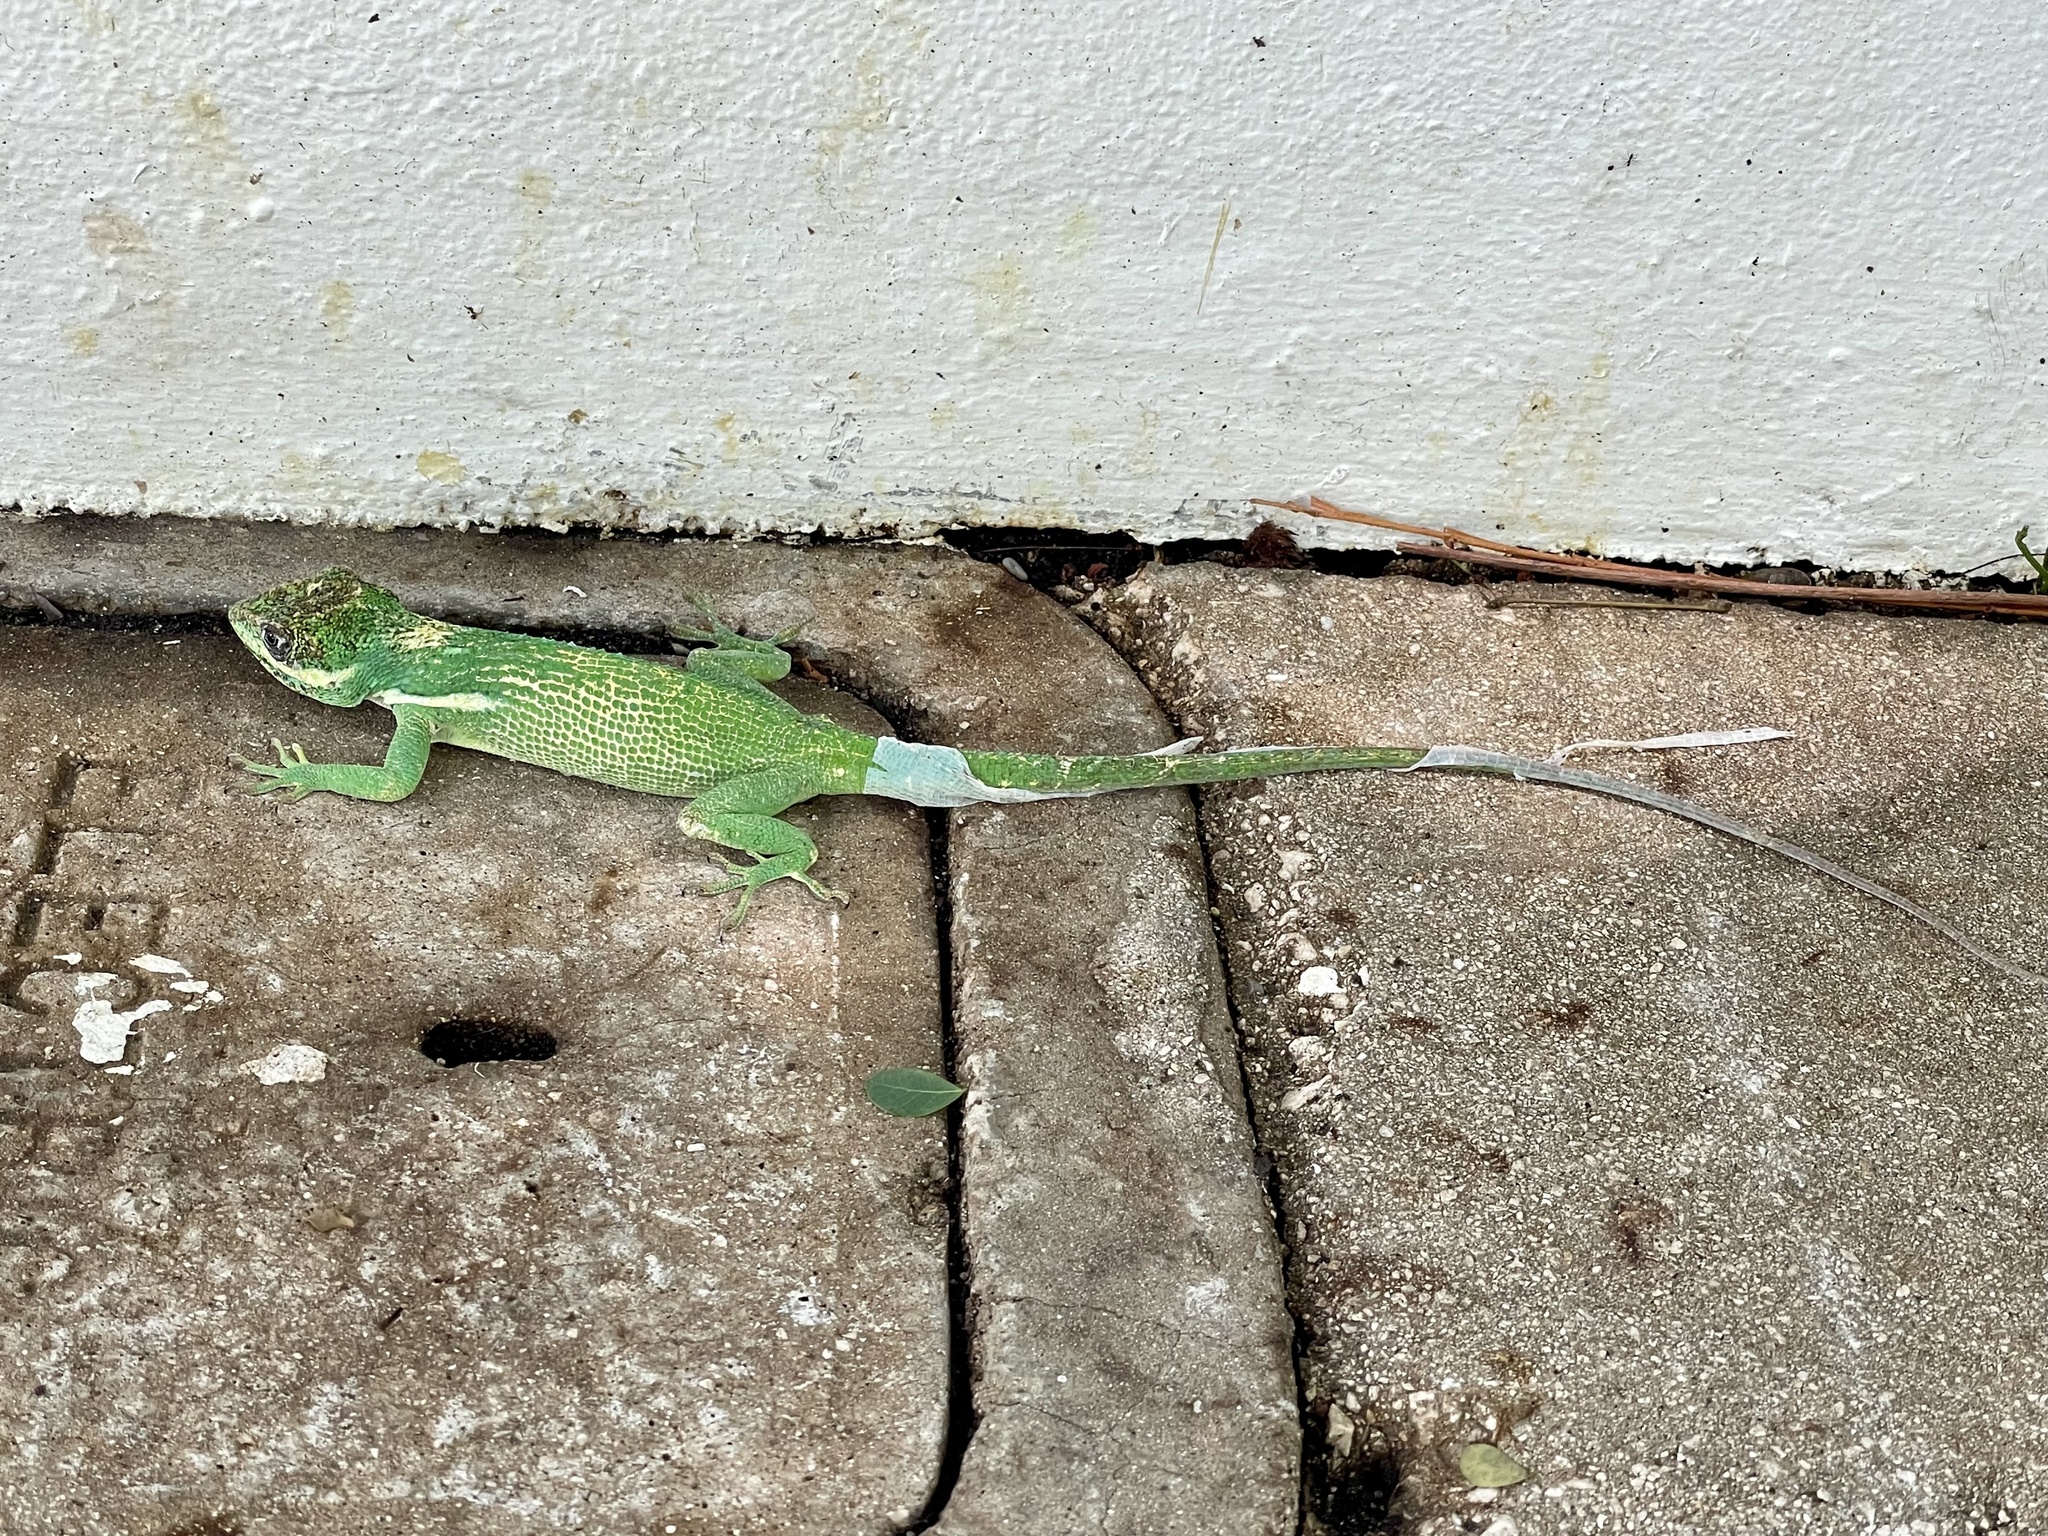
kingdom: Animalia
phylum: Chordata
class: Squamata
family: Dactyloidae
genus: Anolis
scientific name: Anolis equestris
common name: Knight anole
